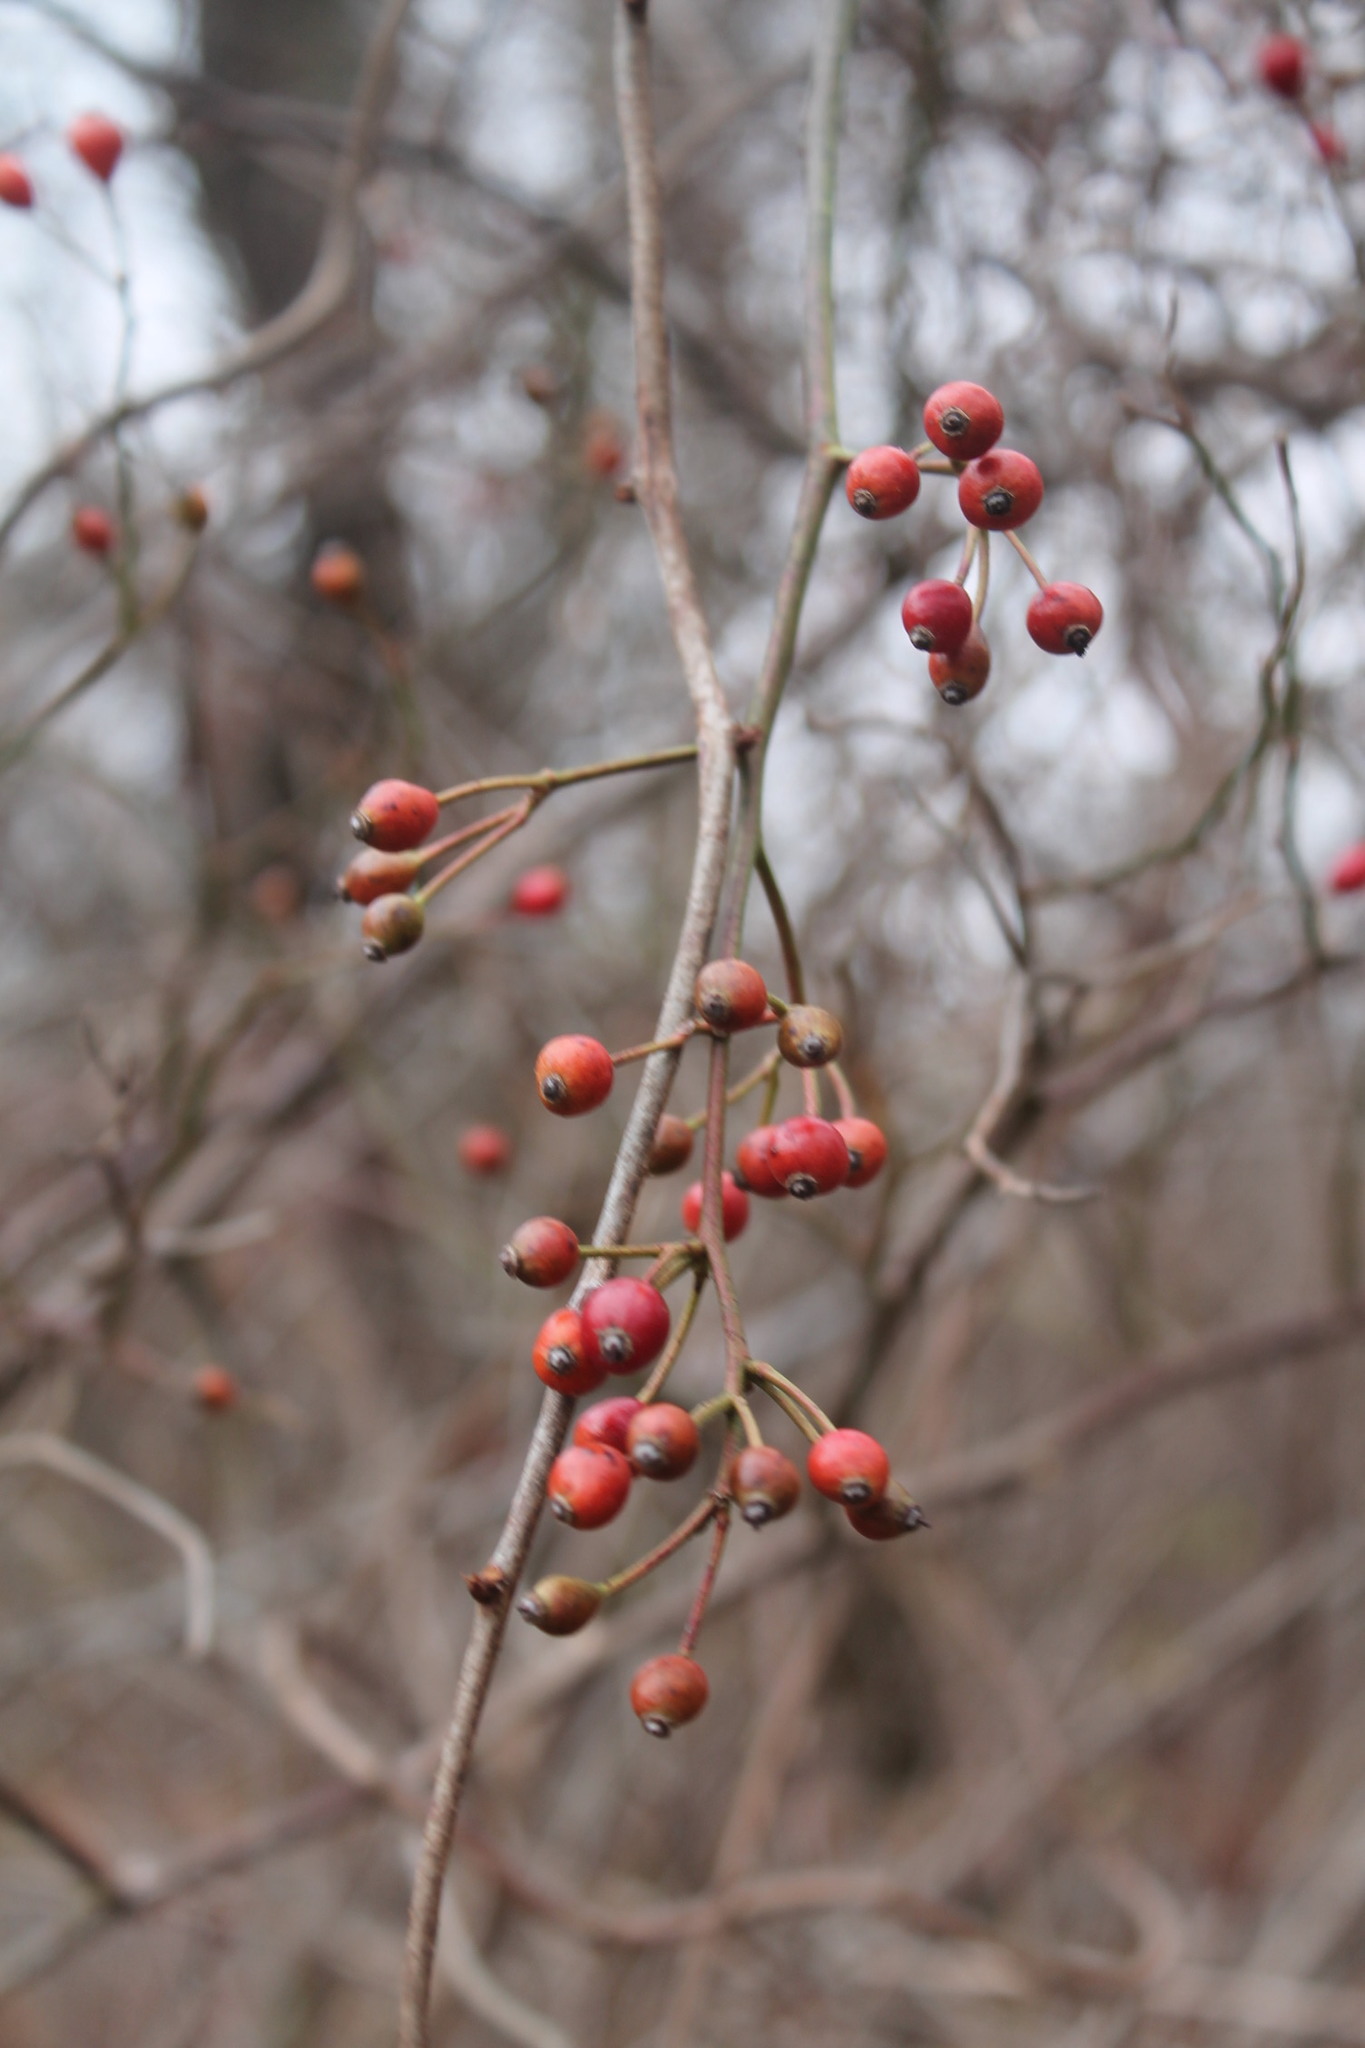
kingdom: Plantae
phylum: Tracheophyta
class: Magnoliopsida
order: Rosales
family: Rosaceae
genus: Rosa
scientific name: Rosa multiflora
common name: Multiflora rose
